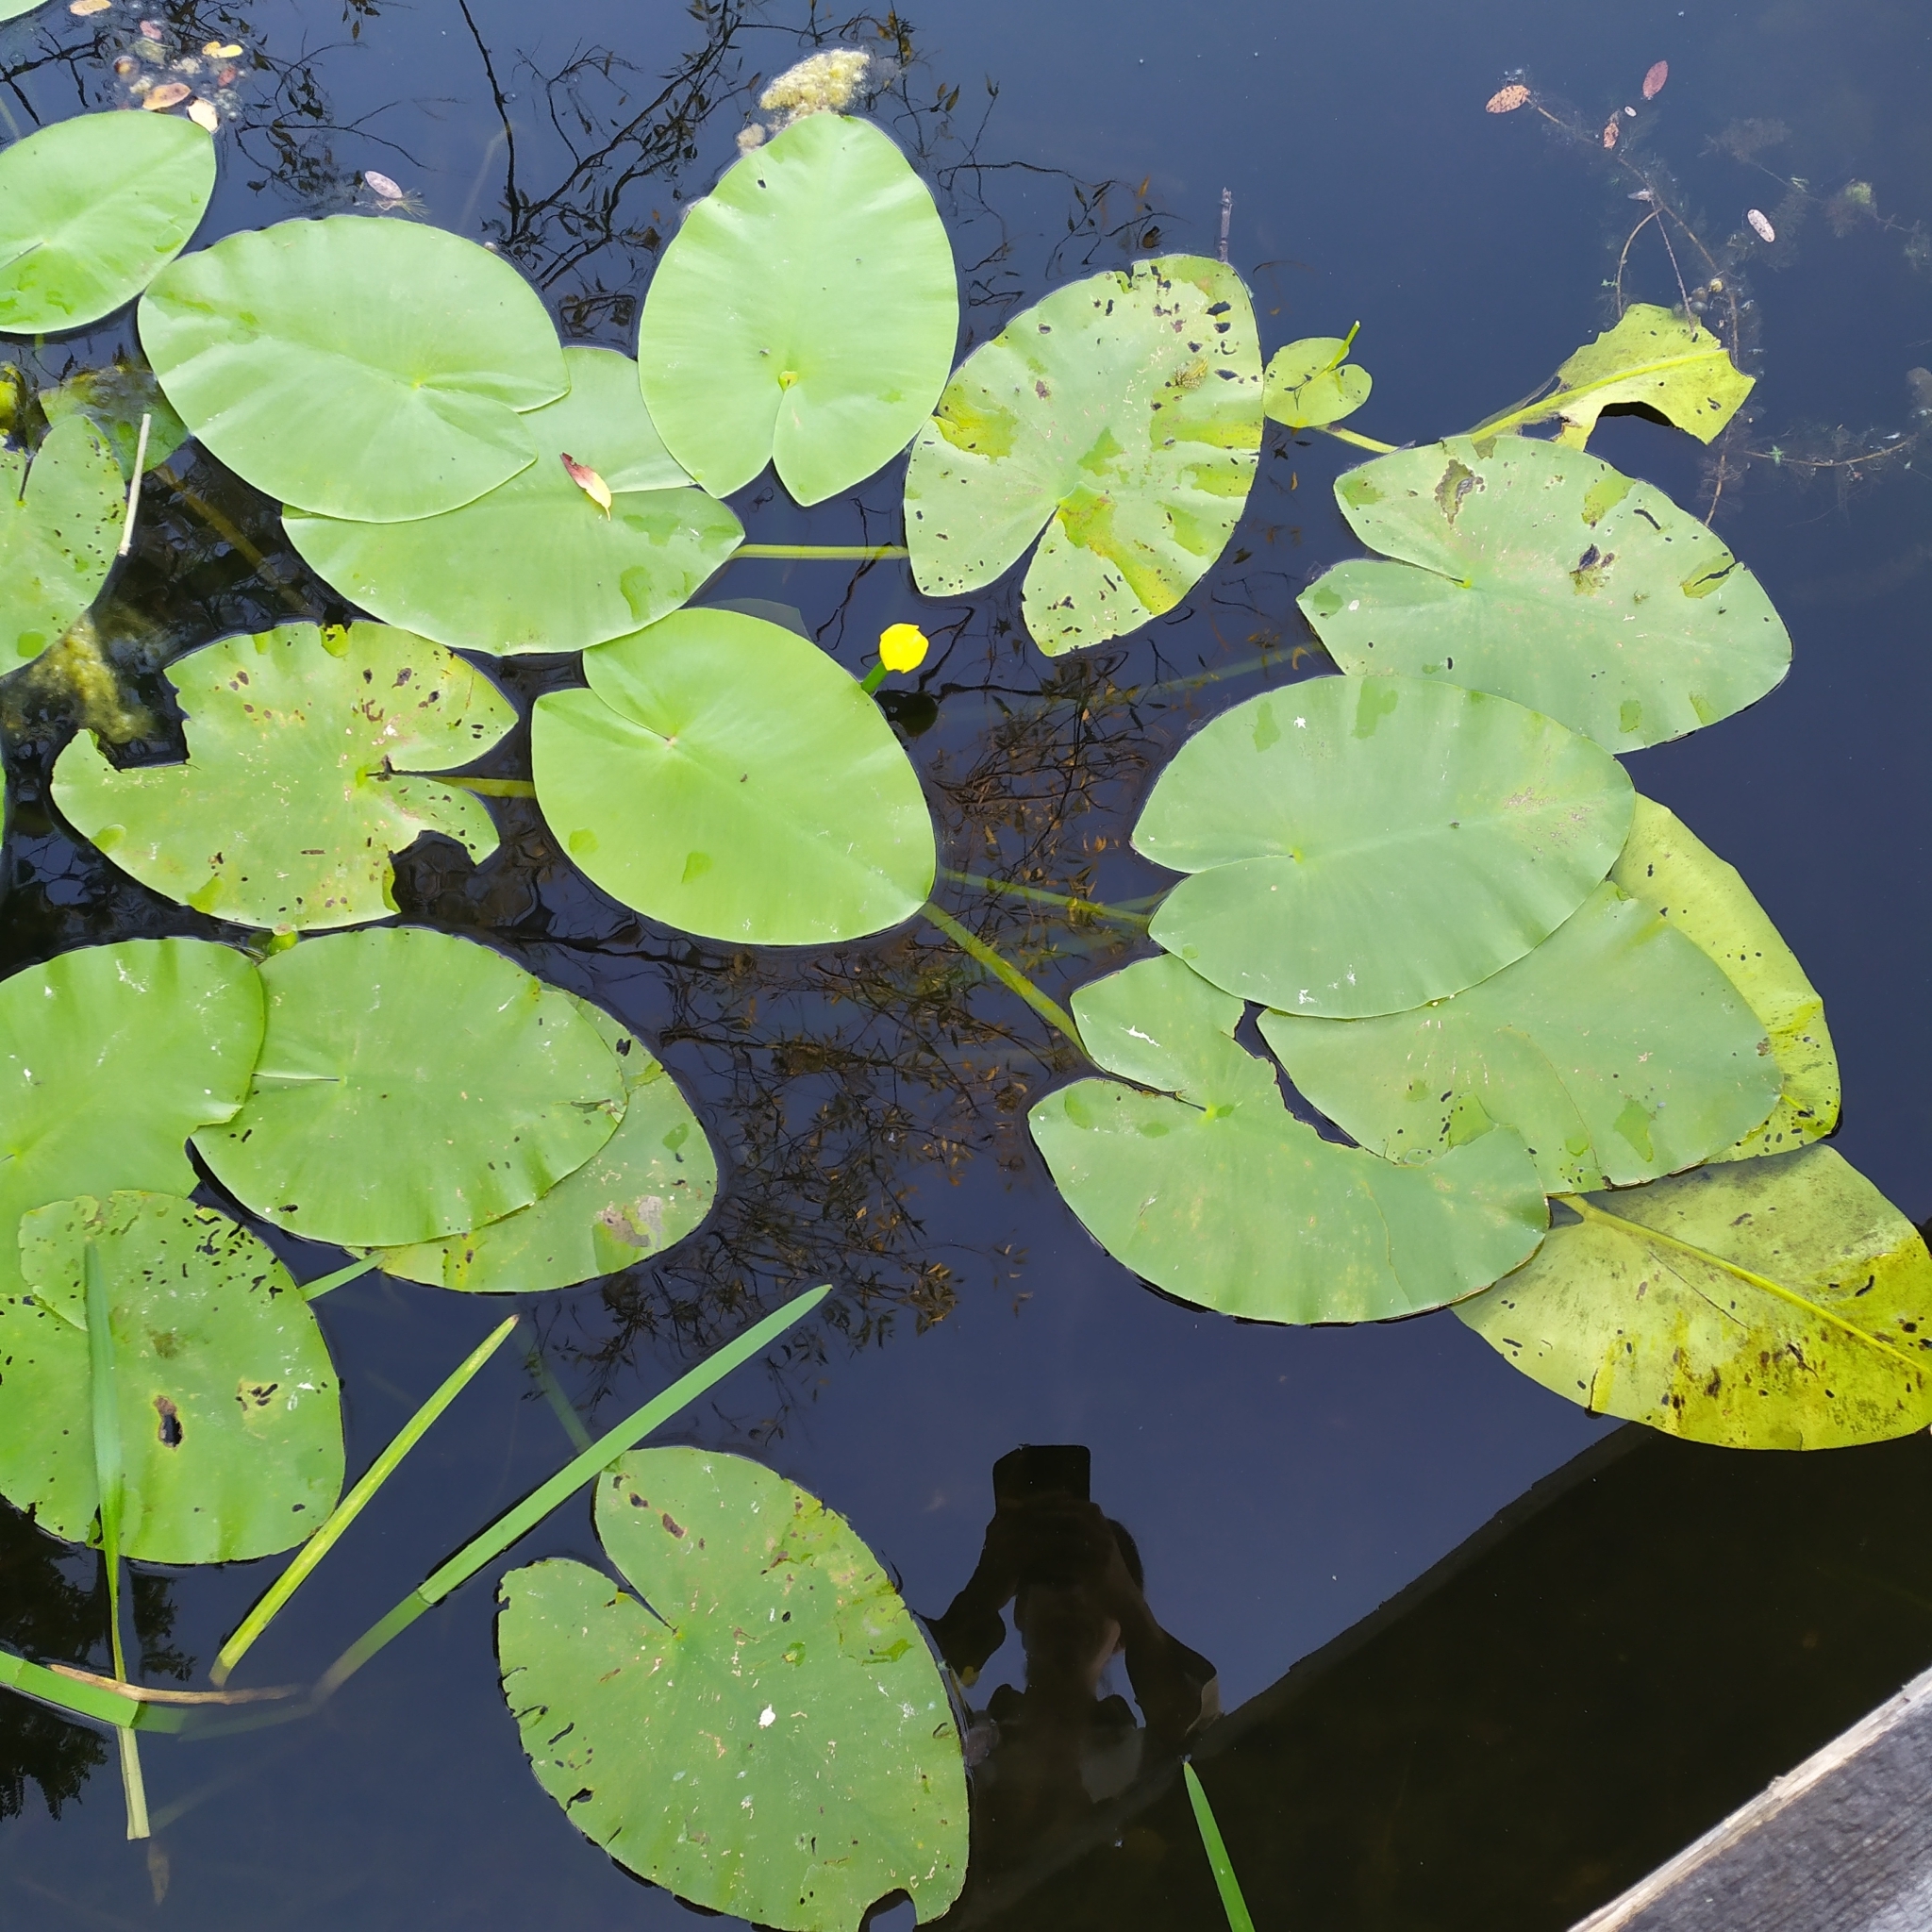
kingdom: Plantae
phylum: Tracheophyta
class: Magnoliopsida
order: Nymphaeales
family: Nymphaeaceae
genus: Nuphar
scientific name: Nuphar lutea
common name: Yellow water-lily
